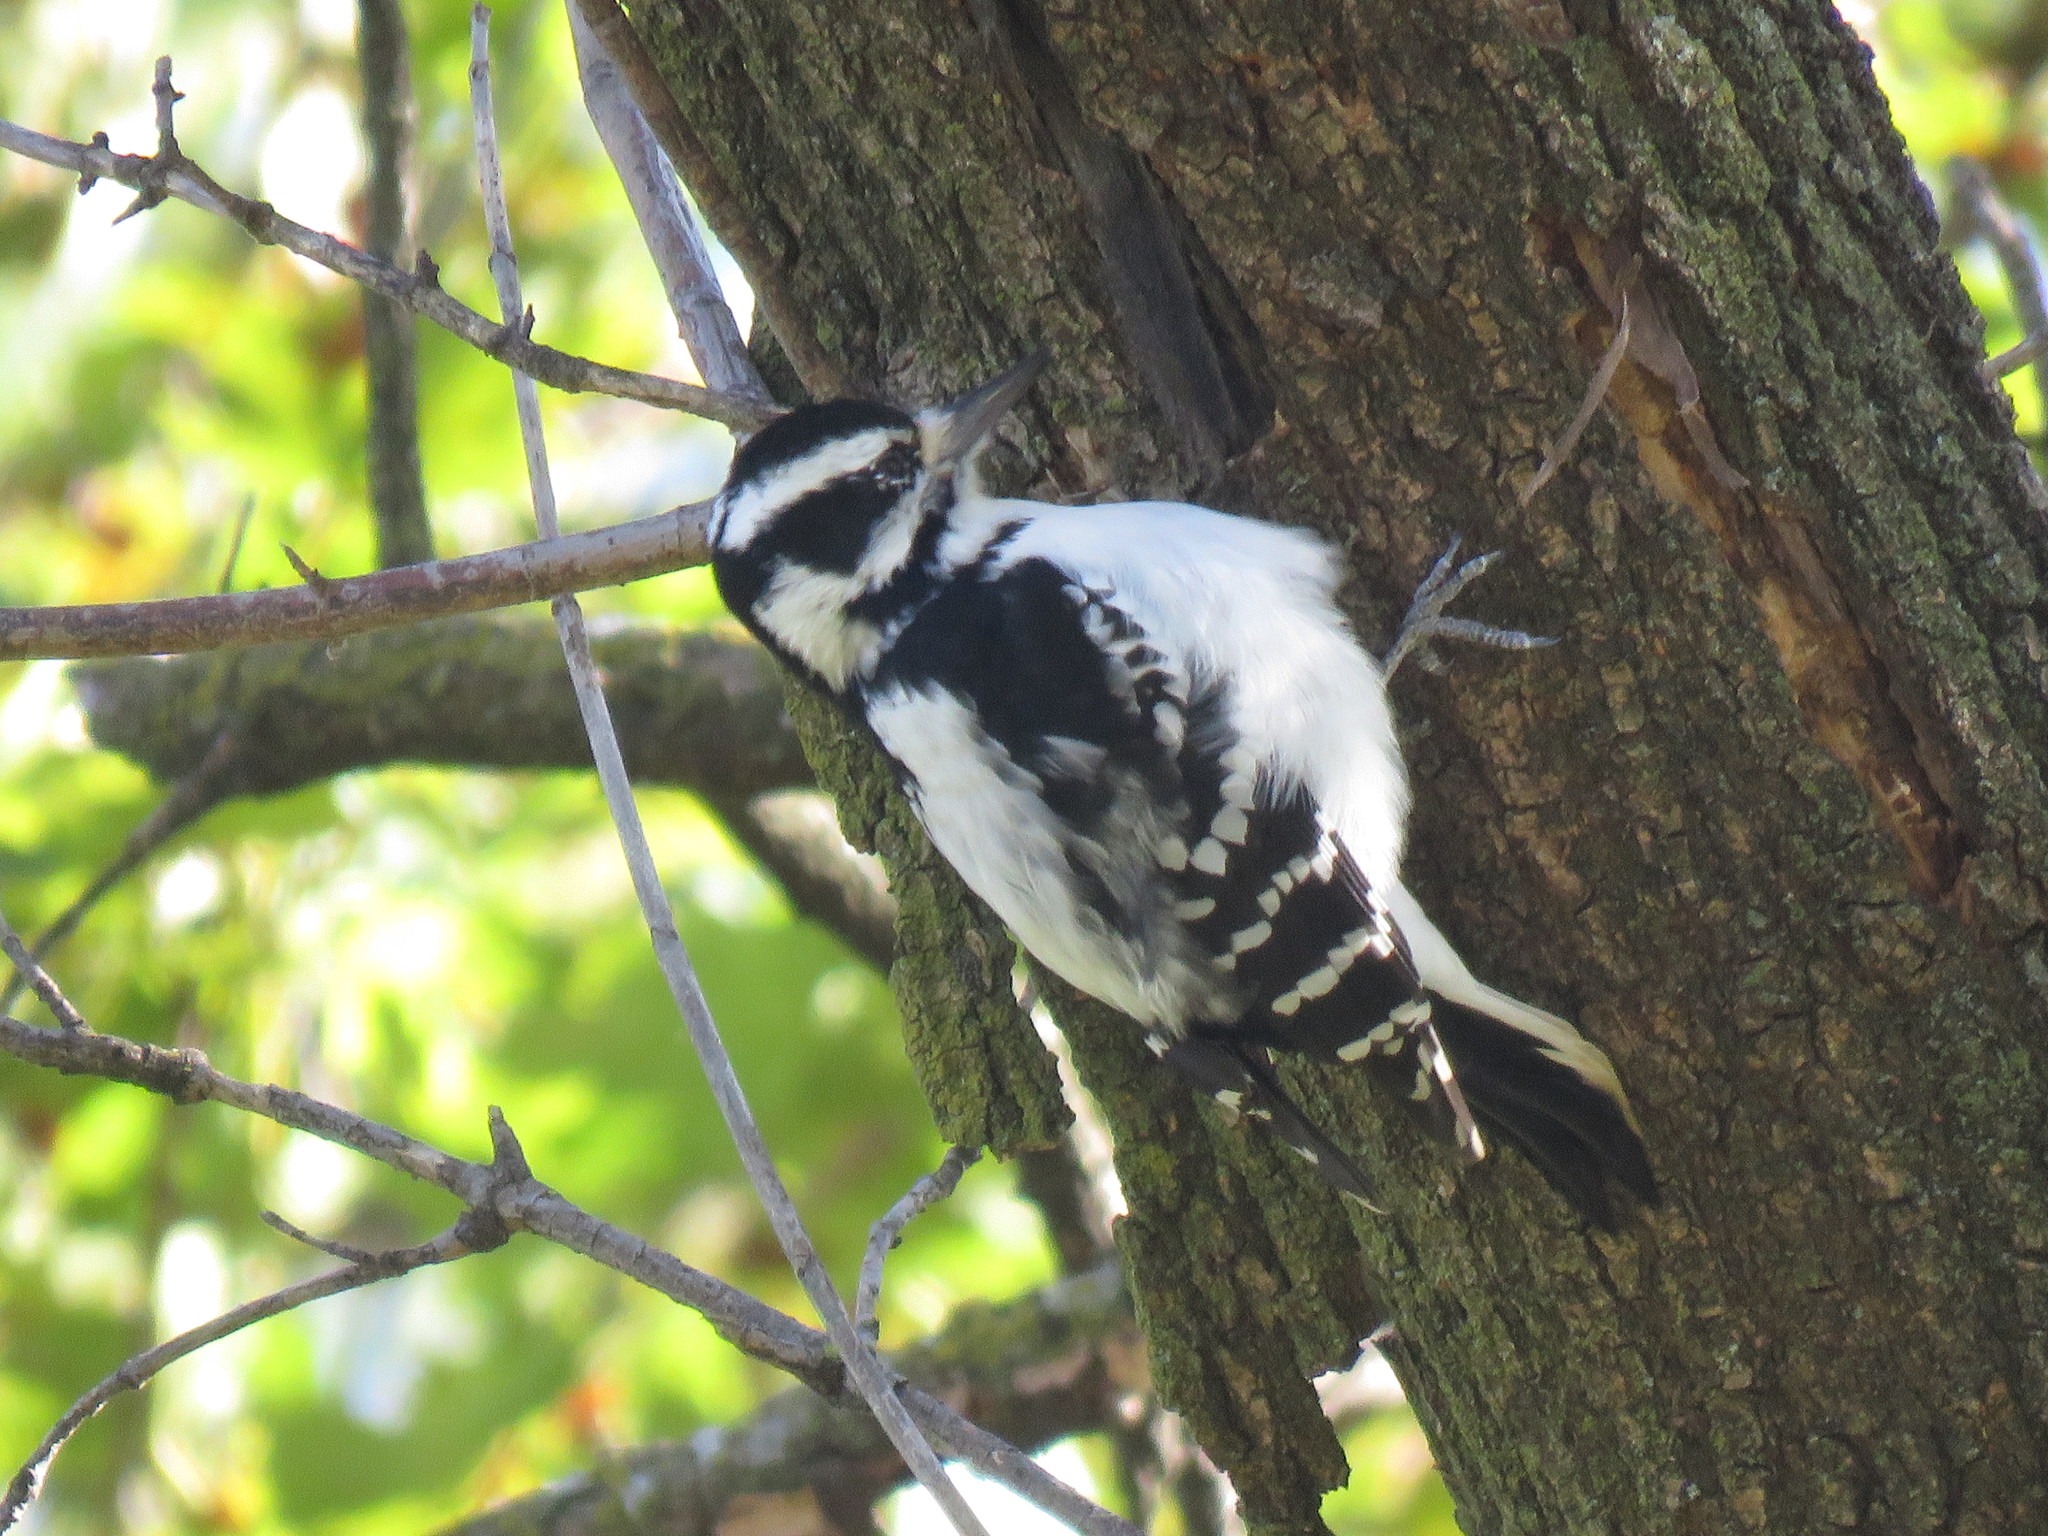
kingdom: Animalia
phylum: Chordata
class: Aves
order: Piciformes
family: Picidae
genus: Leuconotopicus
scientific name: Leuconotopicus villosus
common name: Hairy woodpecker
